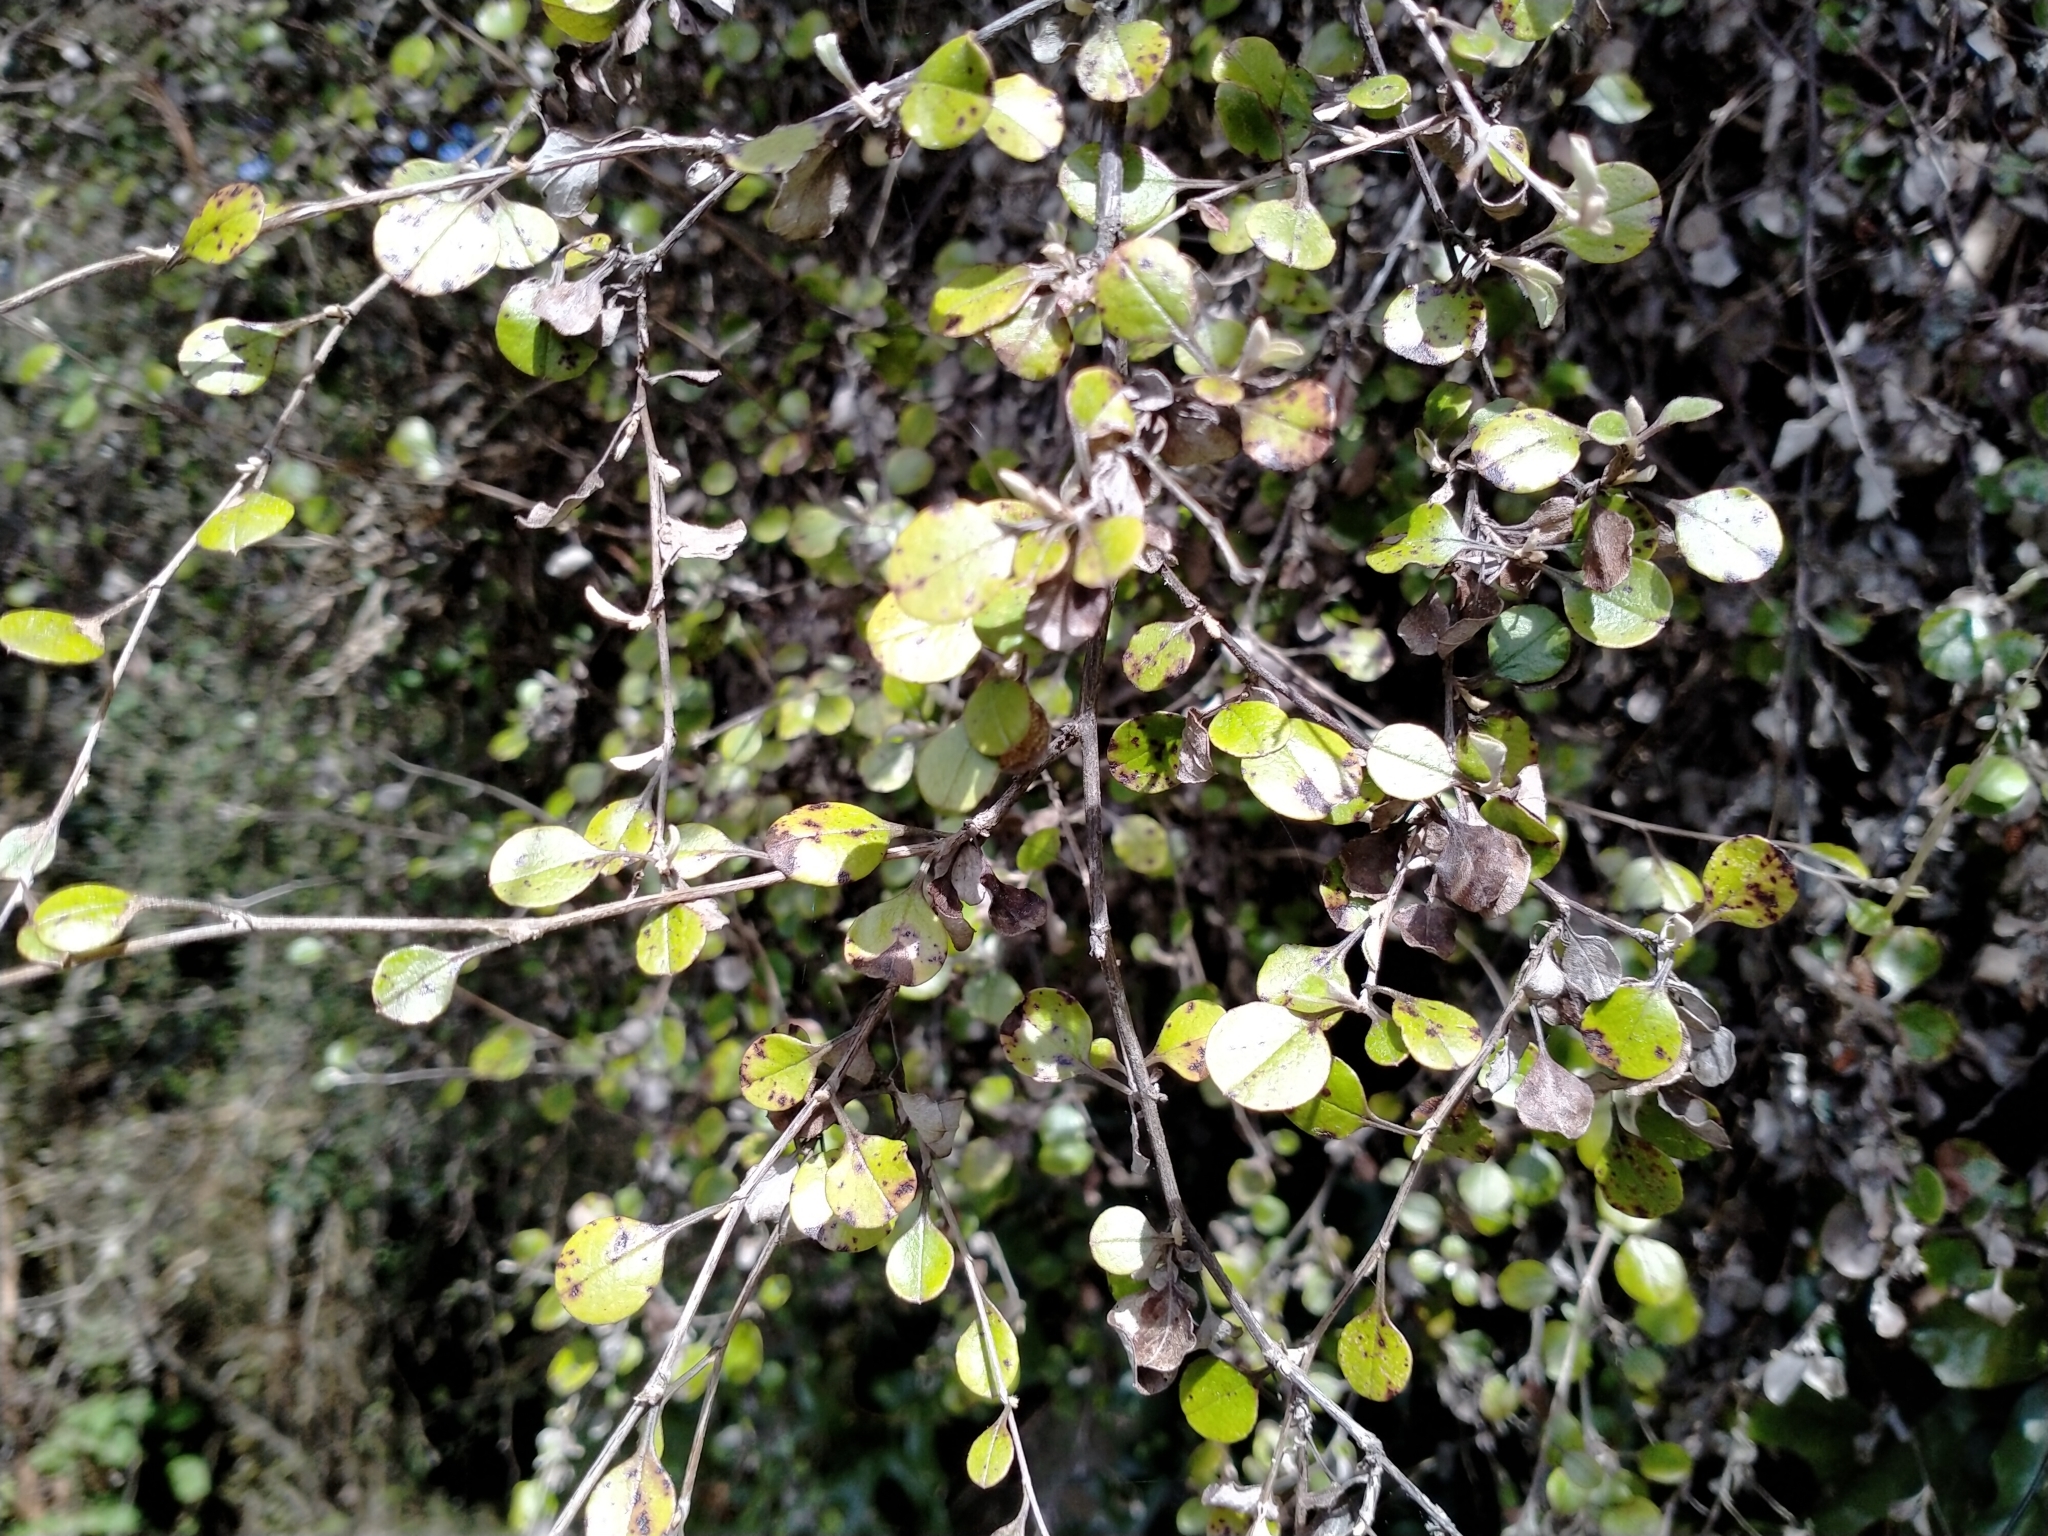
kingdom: Plantae
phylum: Tracheophyta
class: Magnoliopsida
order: Asterales
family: Asteraceae
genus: Ozothamnus
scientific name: Ozothamnus glomeratus
